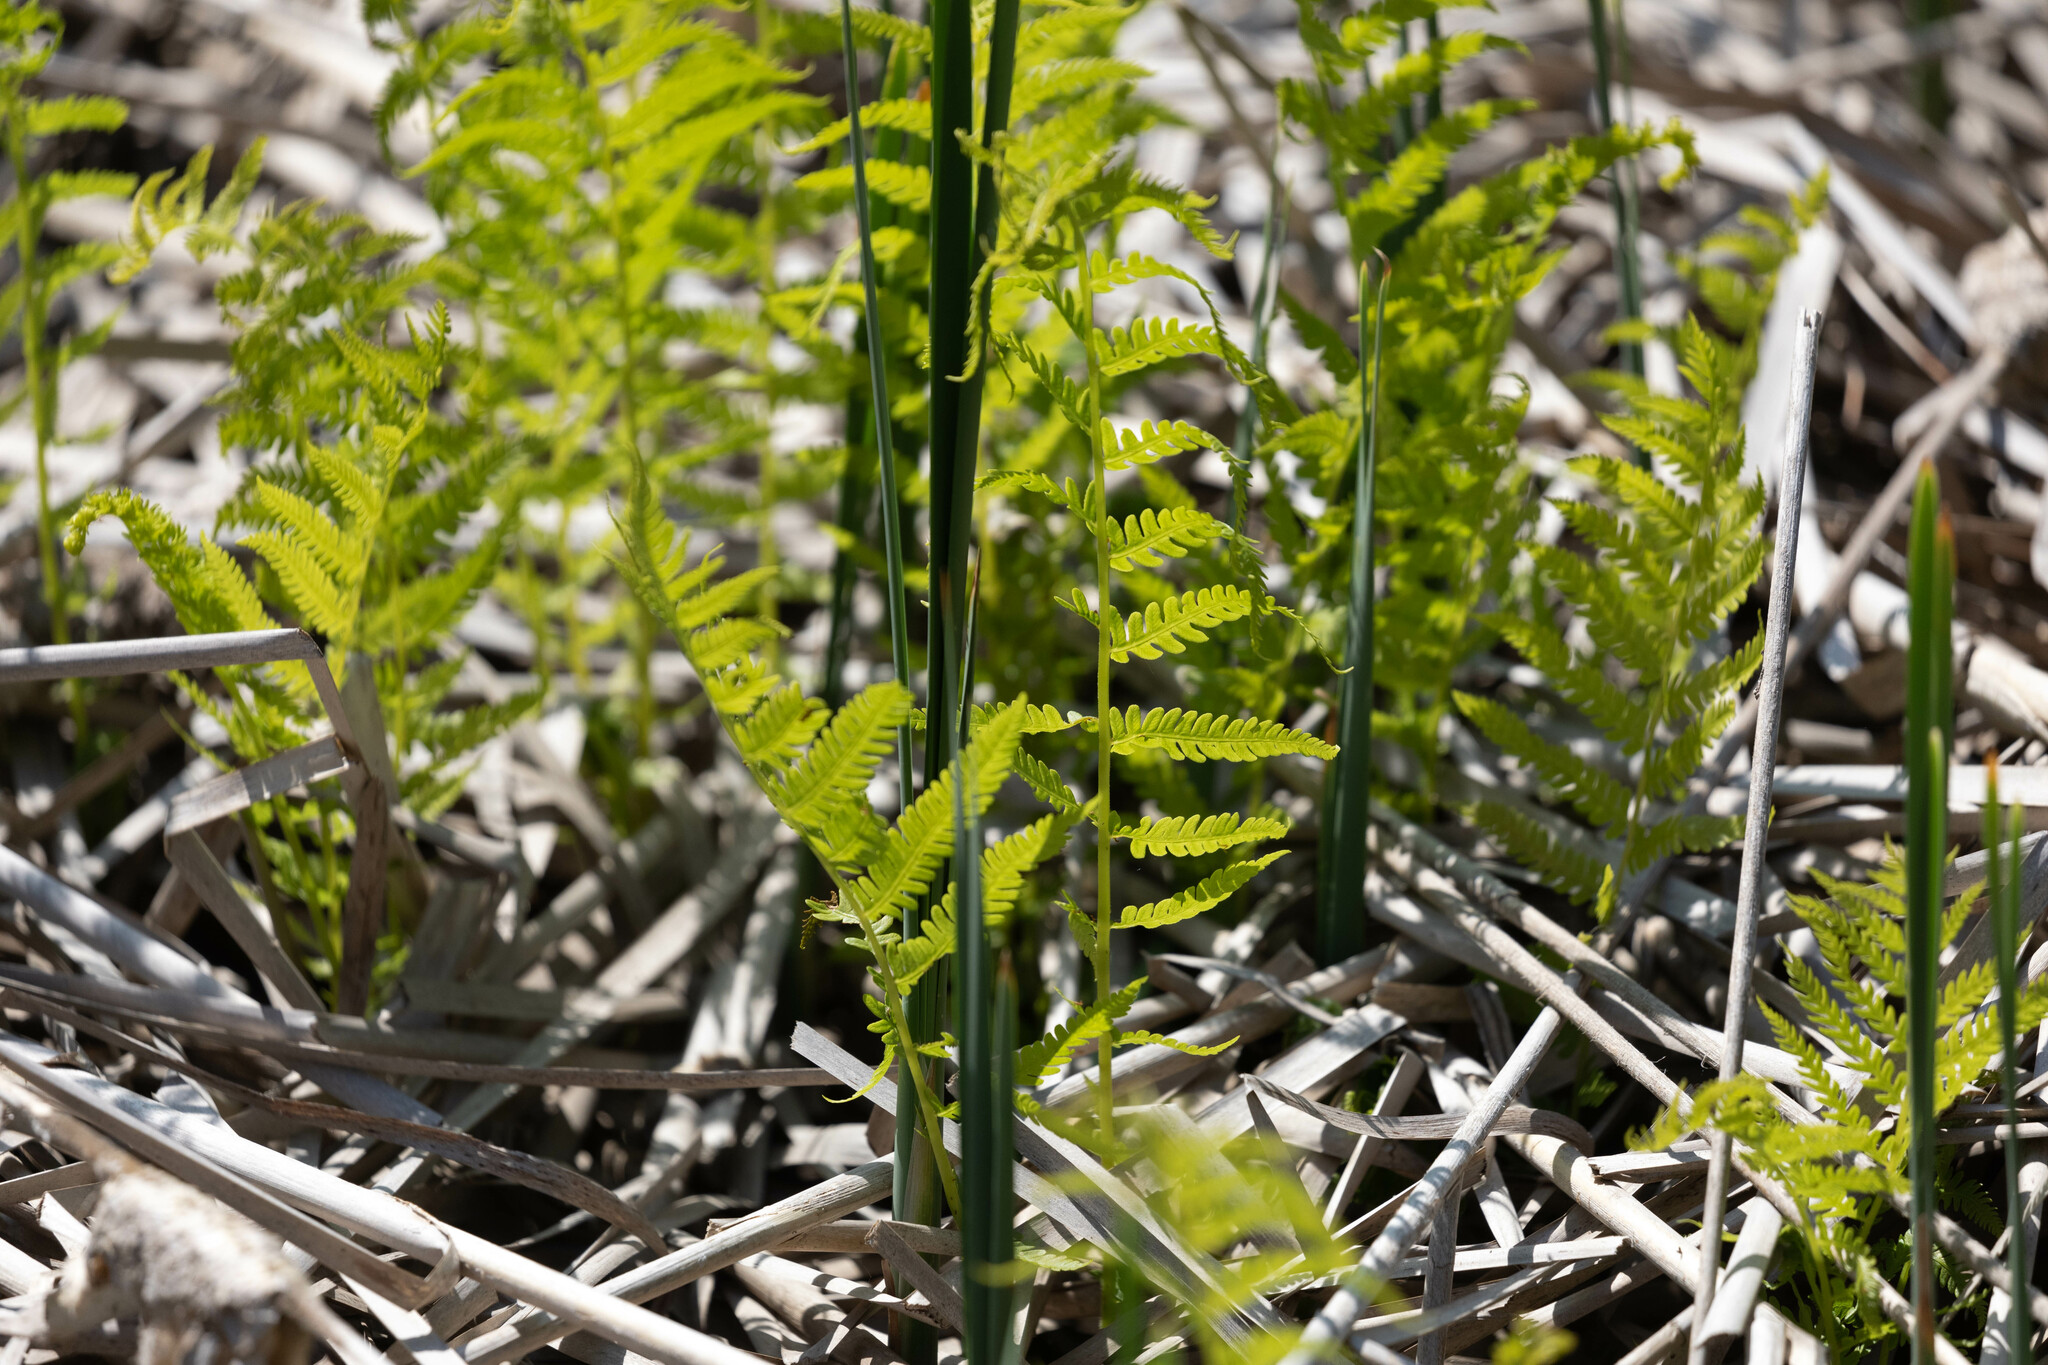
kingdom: Plantae
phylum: Tracheophyta
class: Polypodiopsida
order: Polypodiales
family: Thelypteridaceae
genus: Thelypteris
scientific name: Thelypteris palustris
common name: Marsh fern
